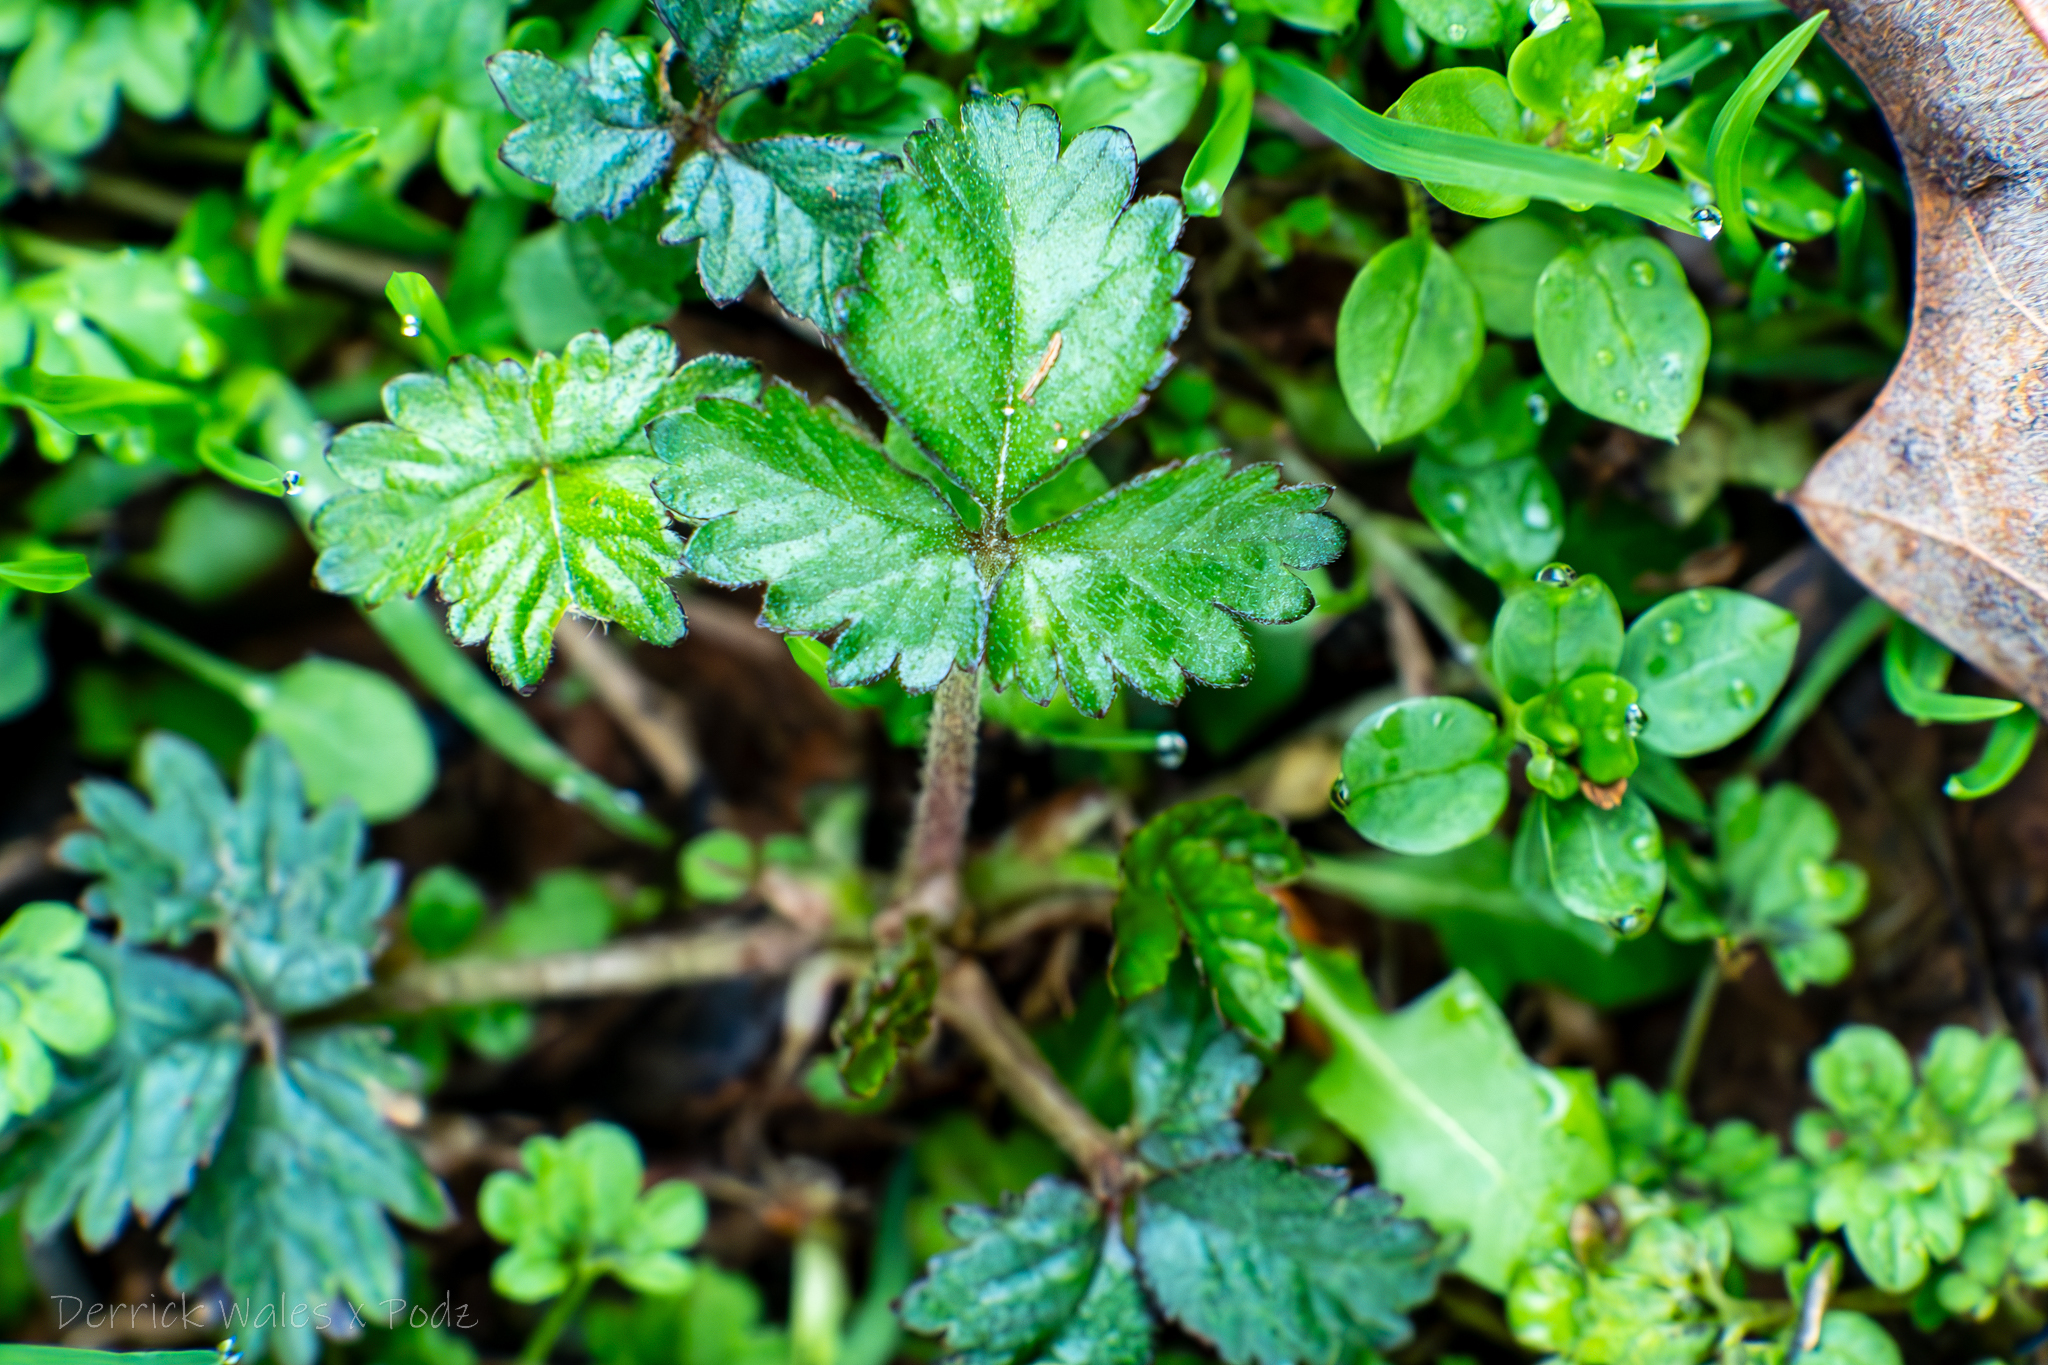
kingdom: Plantae
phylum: Tracheophyta
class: Magnoliopsida
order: Rosales
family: Rosaceae
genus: Potentilla
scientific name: Potentilla indica
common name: Yellow-flowered strawberry
